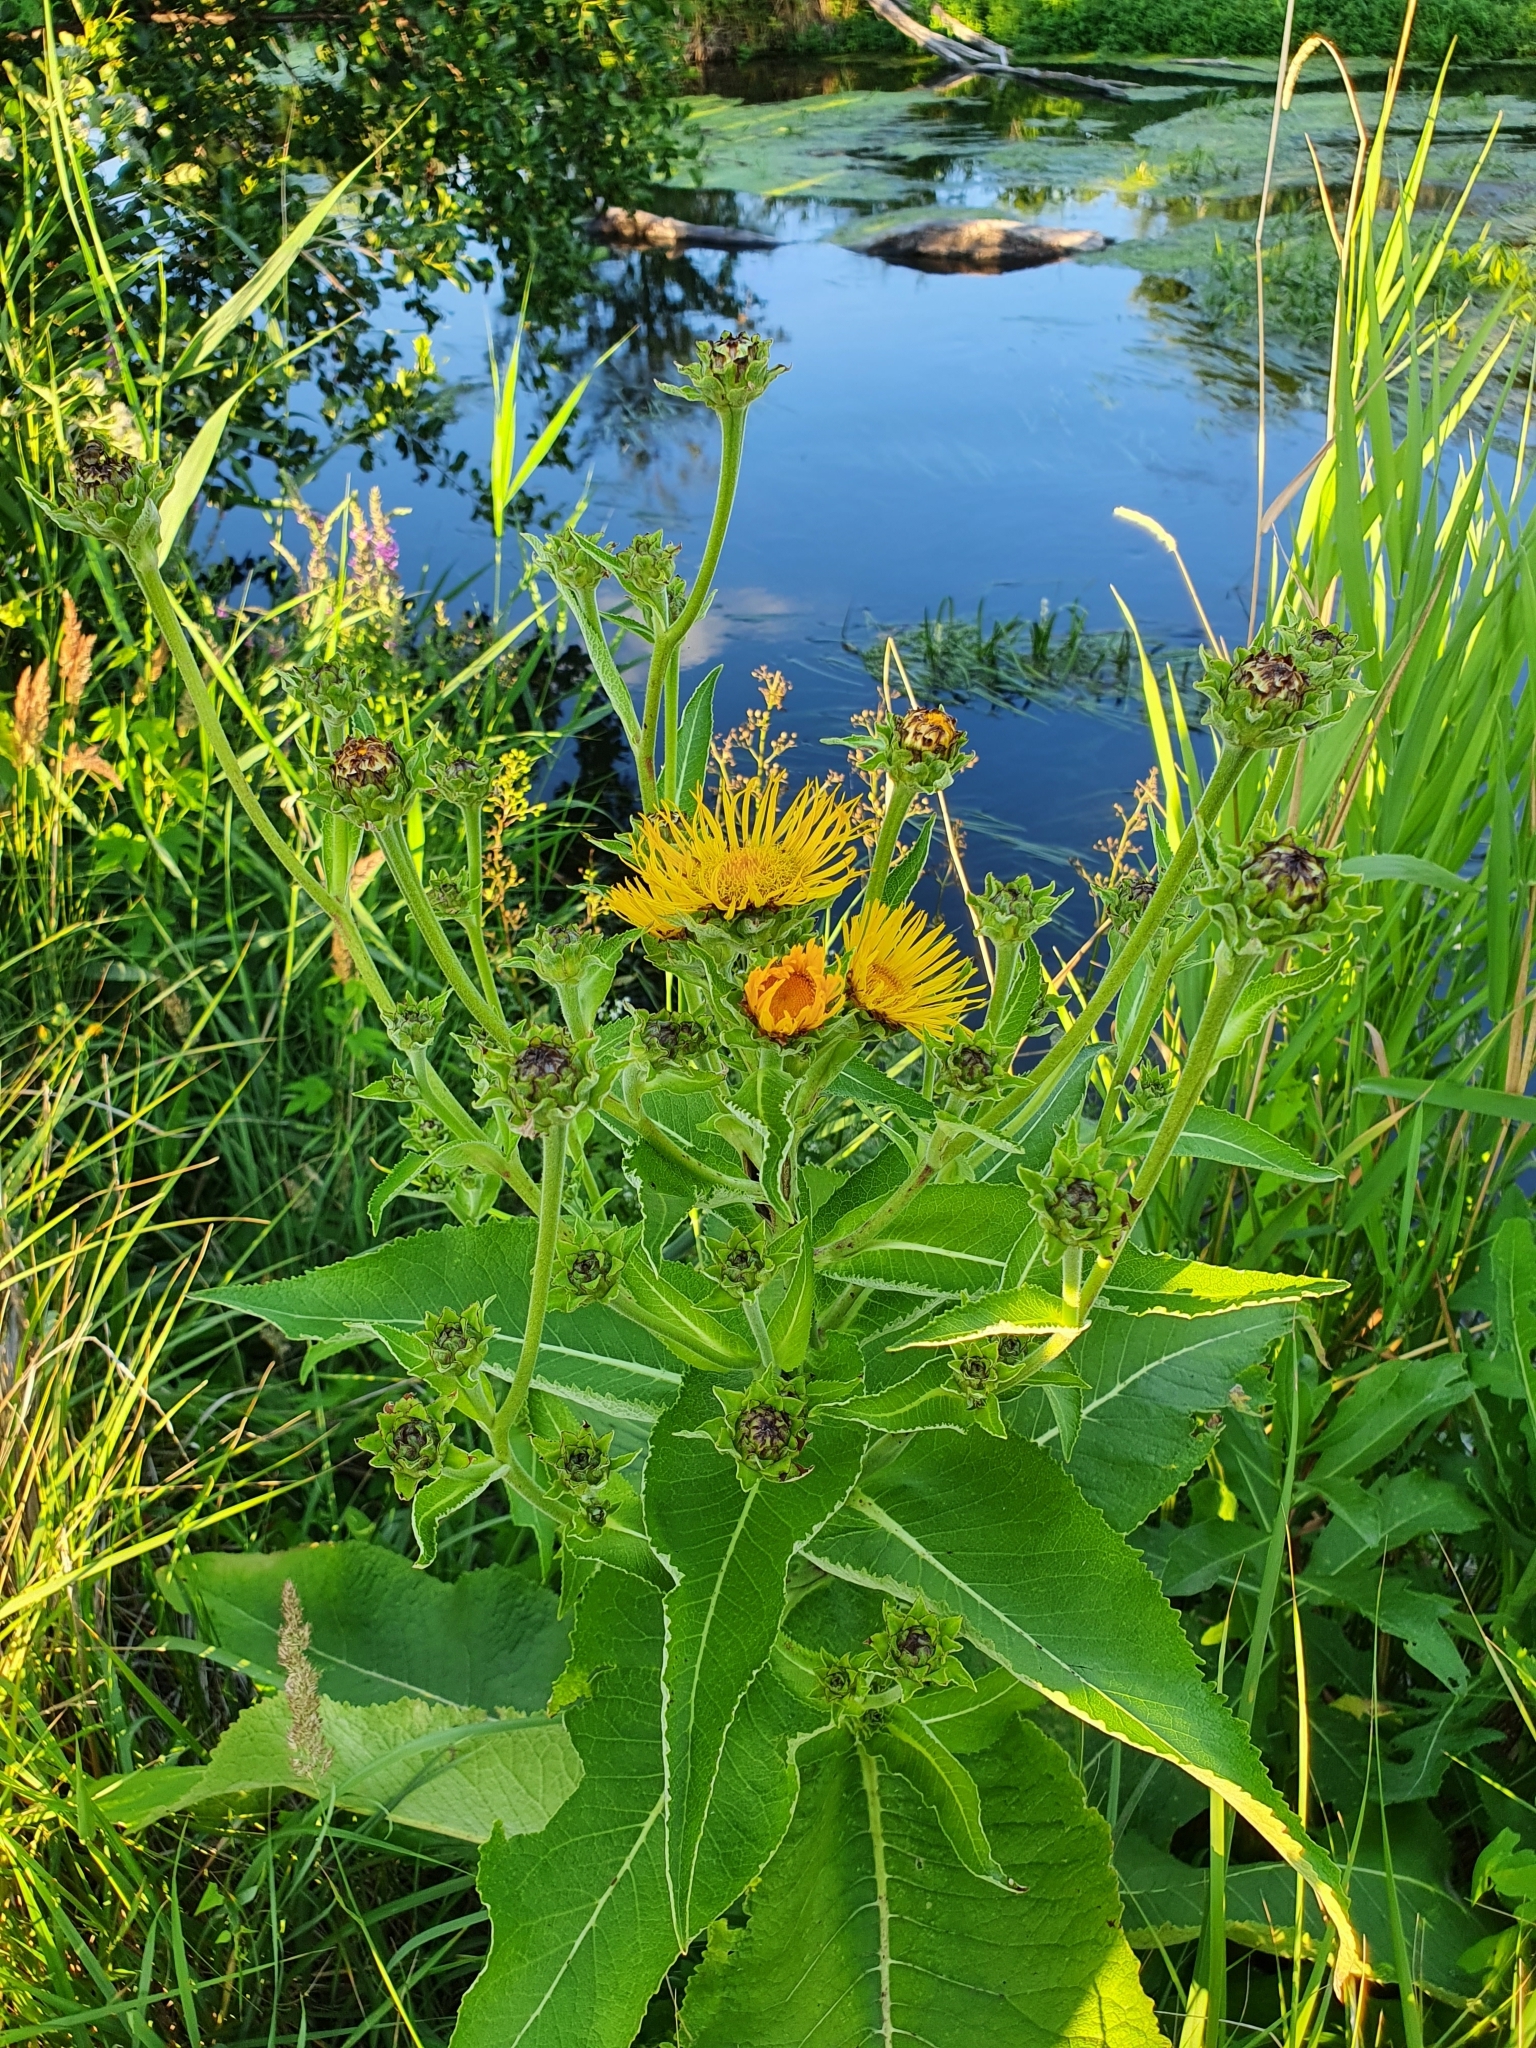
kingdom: Plantae
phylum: Tracheophyta
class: Magnoliopsida
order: Asterales
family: Asteraceae
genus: Inula
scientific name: Inula helenium
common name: Elecampane
